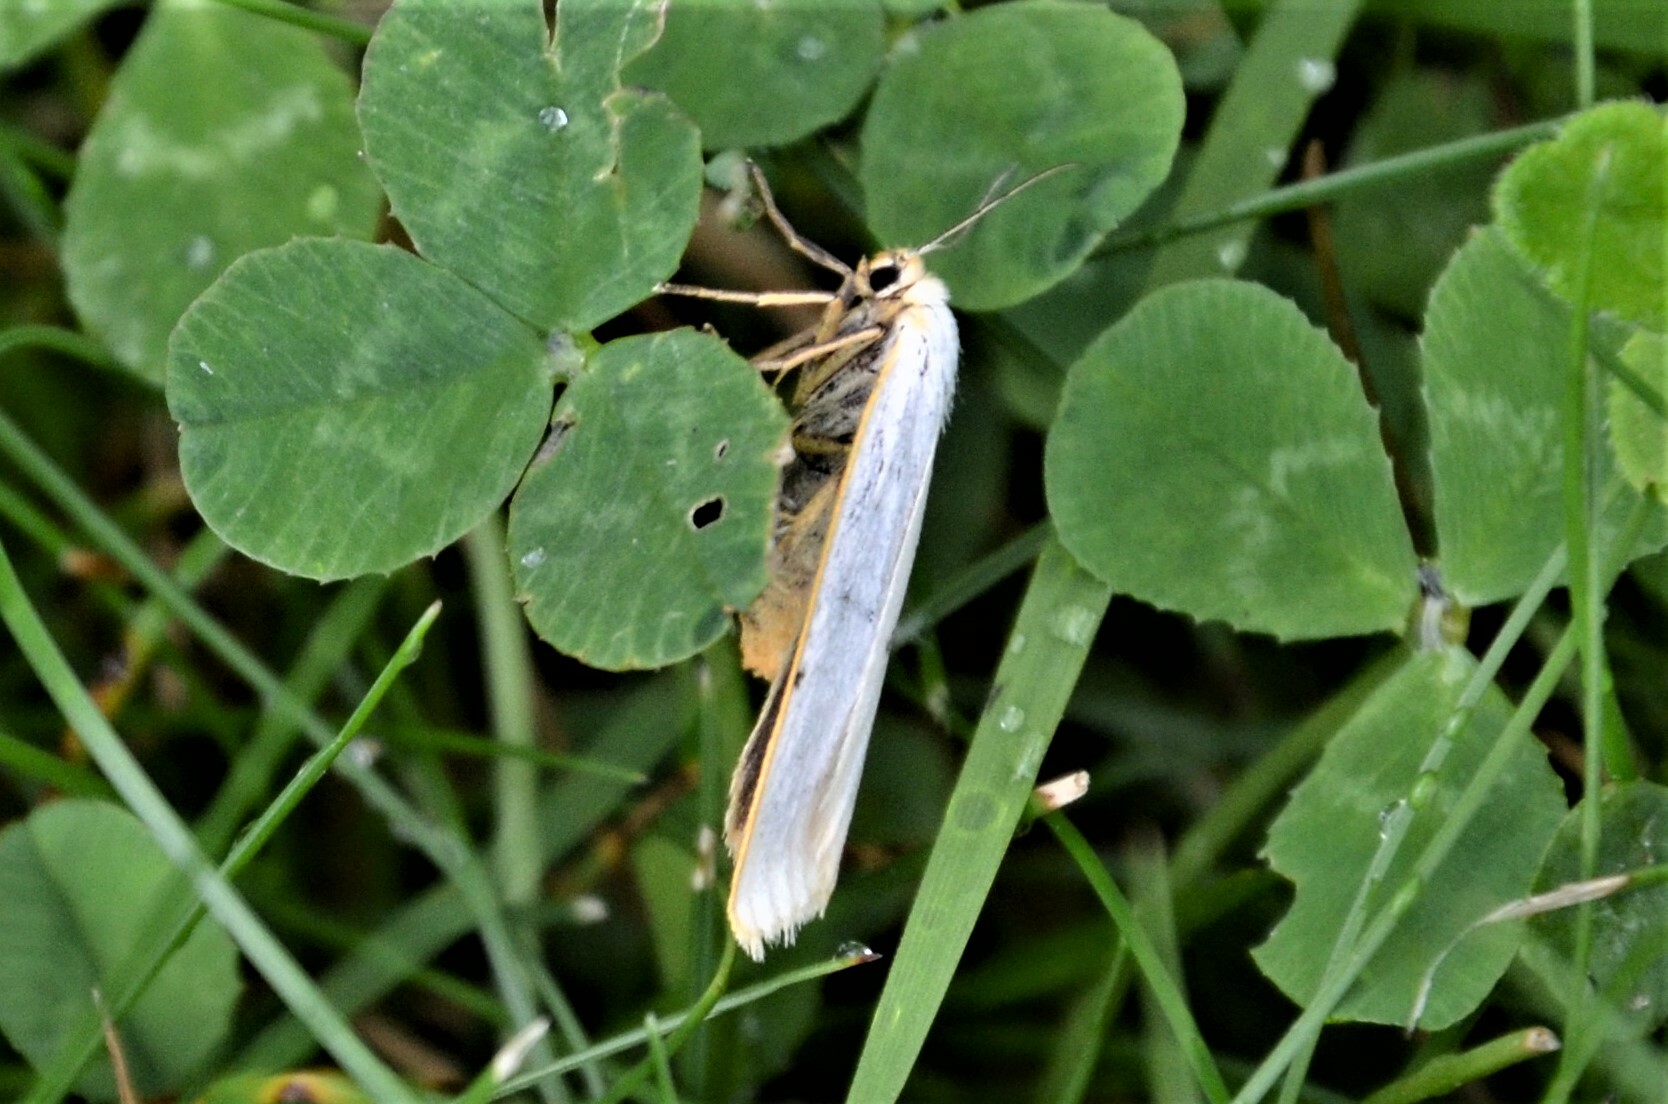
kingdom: Animalia
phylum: Arthropoda
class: Insecta
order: Lepidoptera
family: Erebidae
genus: Cybosia
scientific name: Cybosia mesomella
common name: Four-dotted footman
